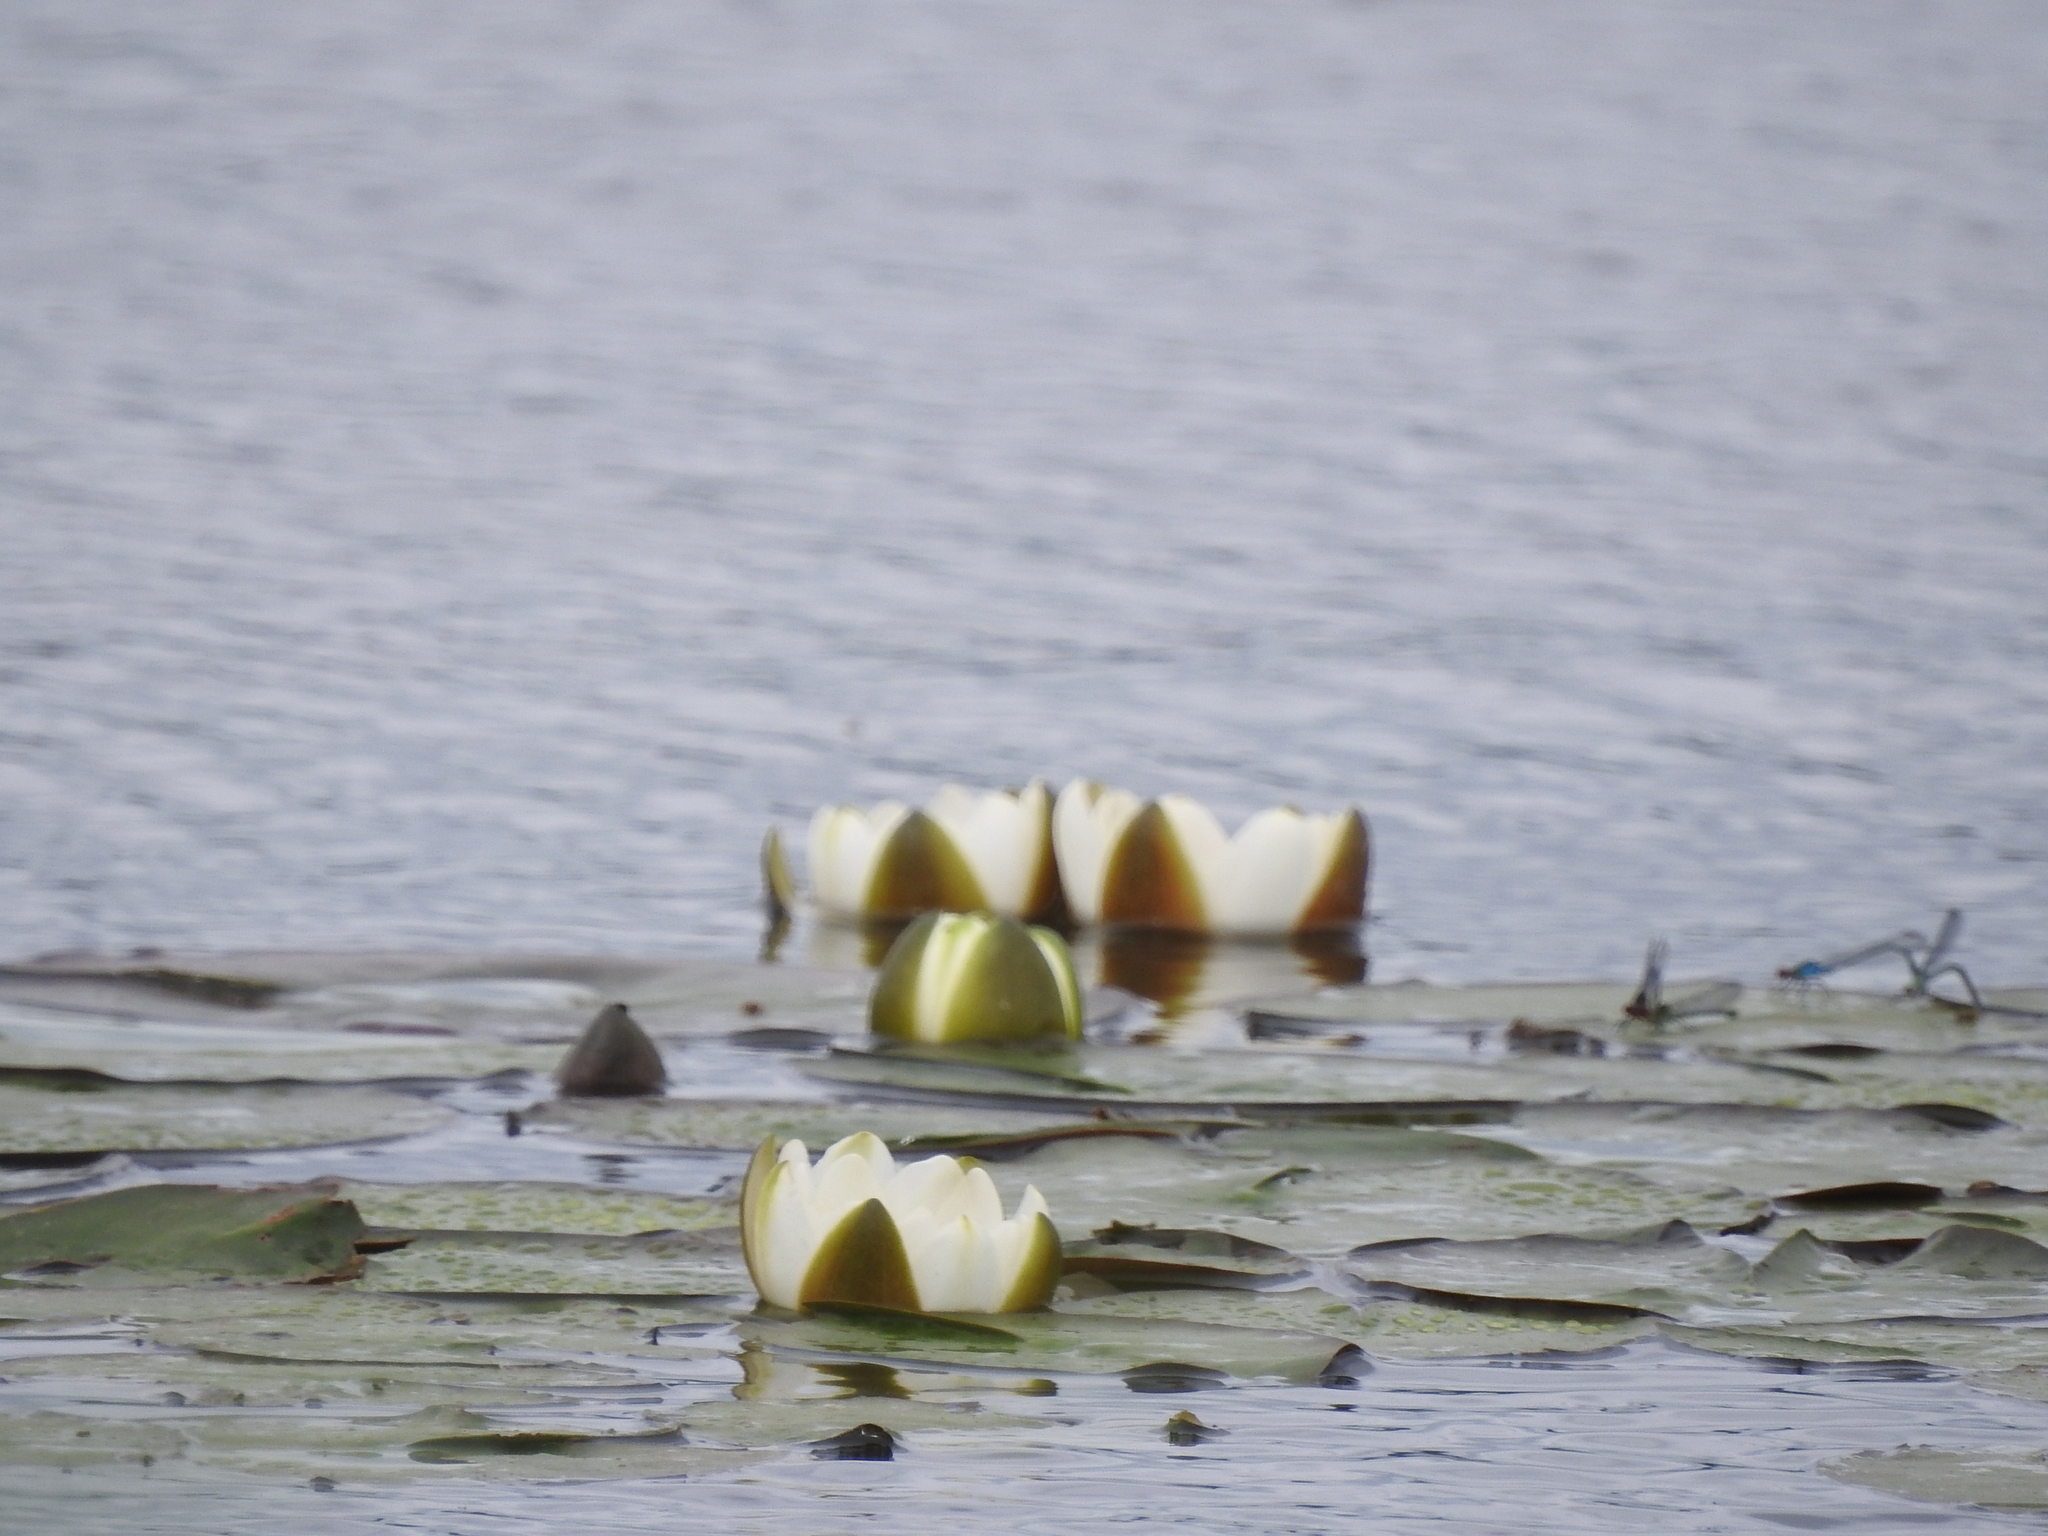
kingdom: Plantae
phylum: Tracheophyta
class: Magnoliopsida
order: Nymphaeales
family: Nymphaeaceae
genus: Nymphaea
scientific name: Nymphaea candida
